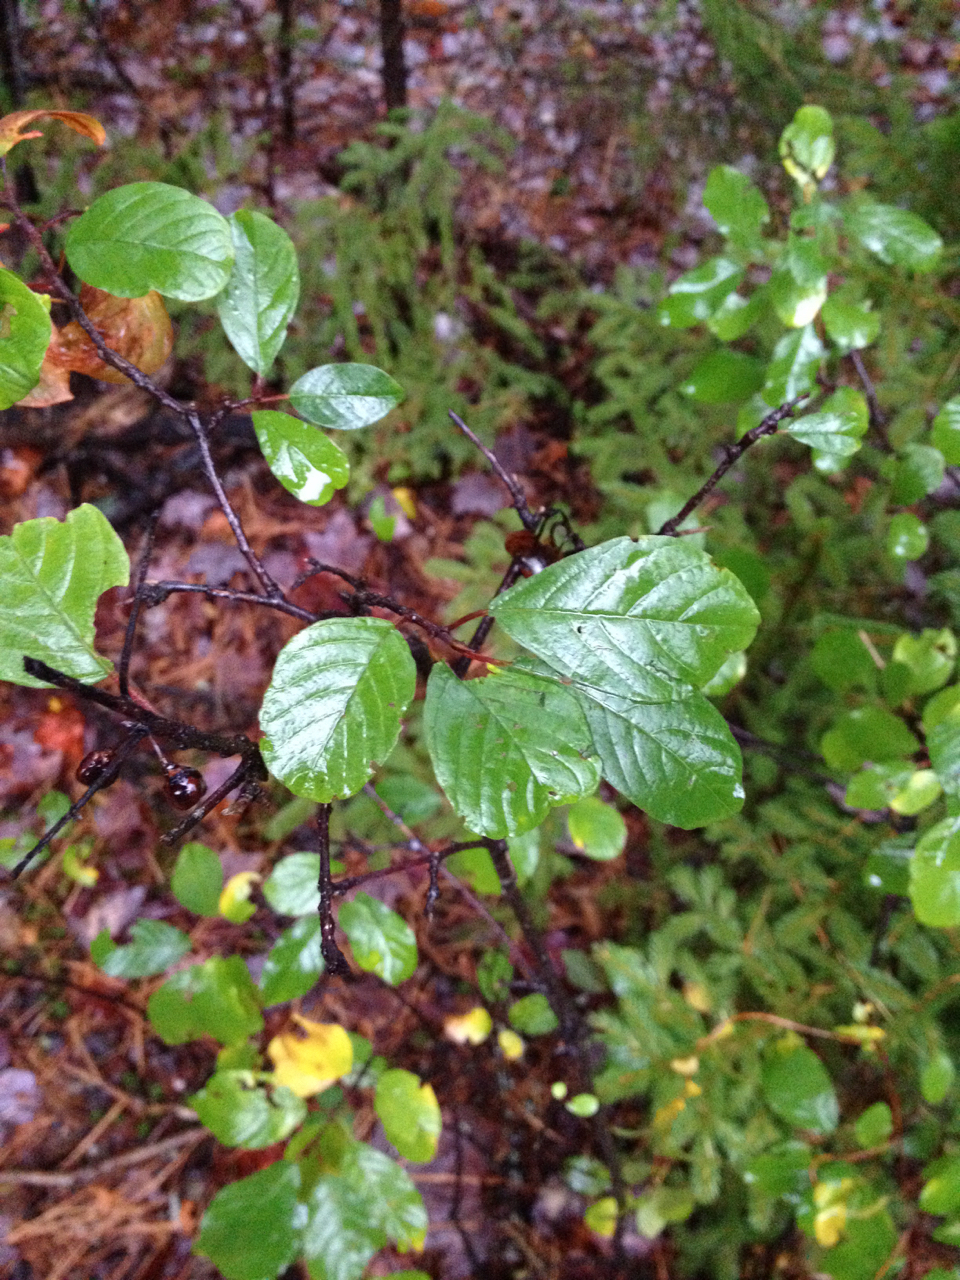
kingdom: Plantae
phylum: Tracheophyta
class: Magnoliopsida
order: Rosales
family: Rhamnaceae
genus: Frangula
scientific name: Frangula alnus
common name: Alder buckthorn
